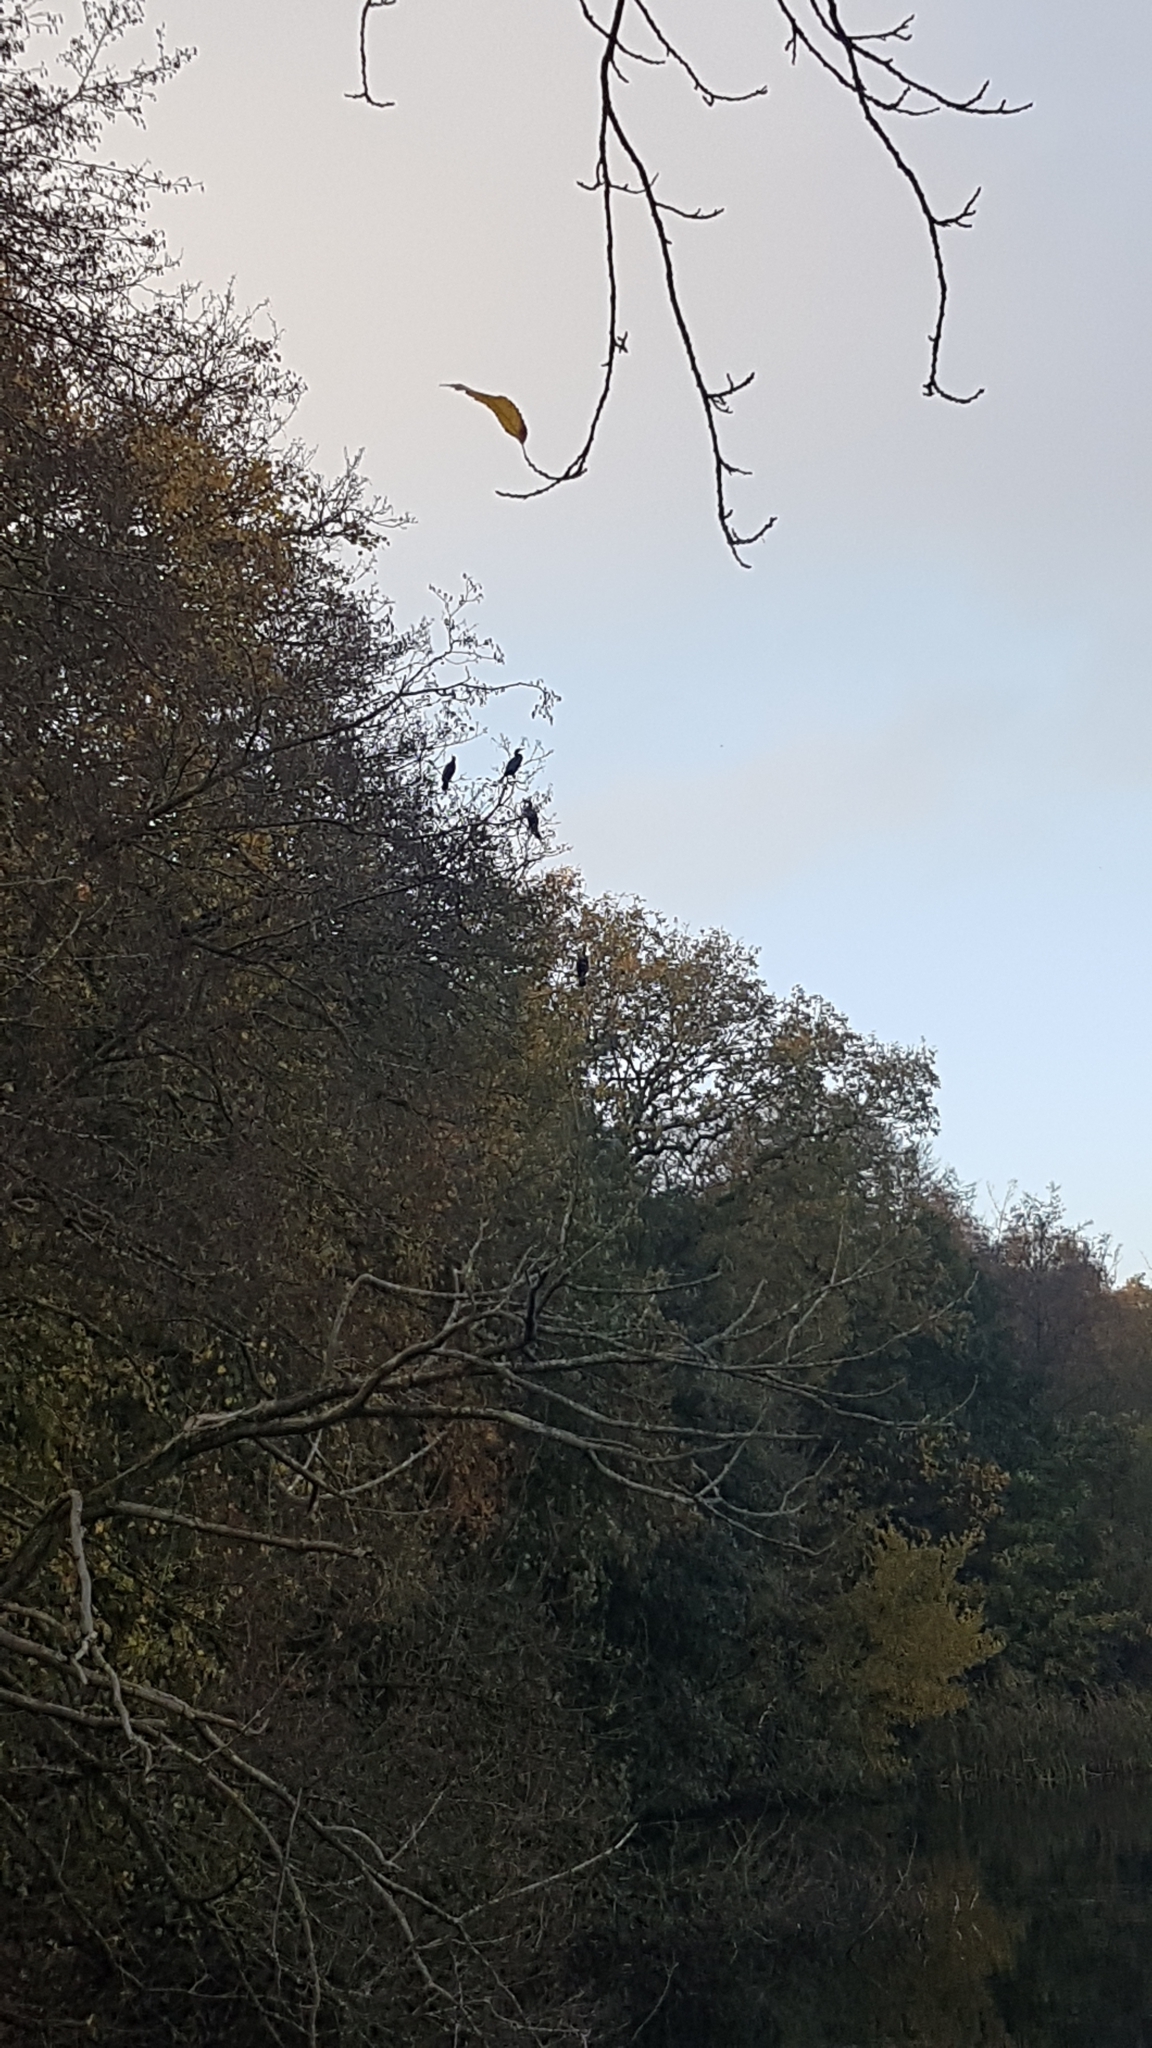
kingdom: Animalia
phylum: Chordata
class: Aves
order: Suliformes
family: Phalacrocoracidae
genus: Phalacrocorax
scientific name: Phalacrocorax carbo
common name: Great cormorant
